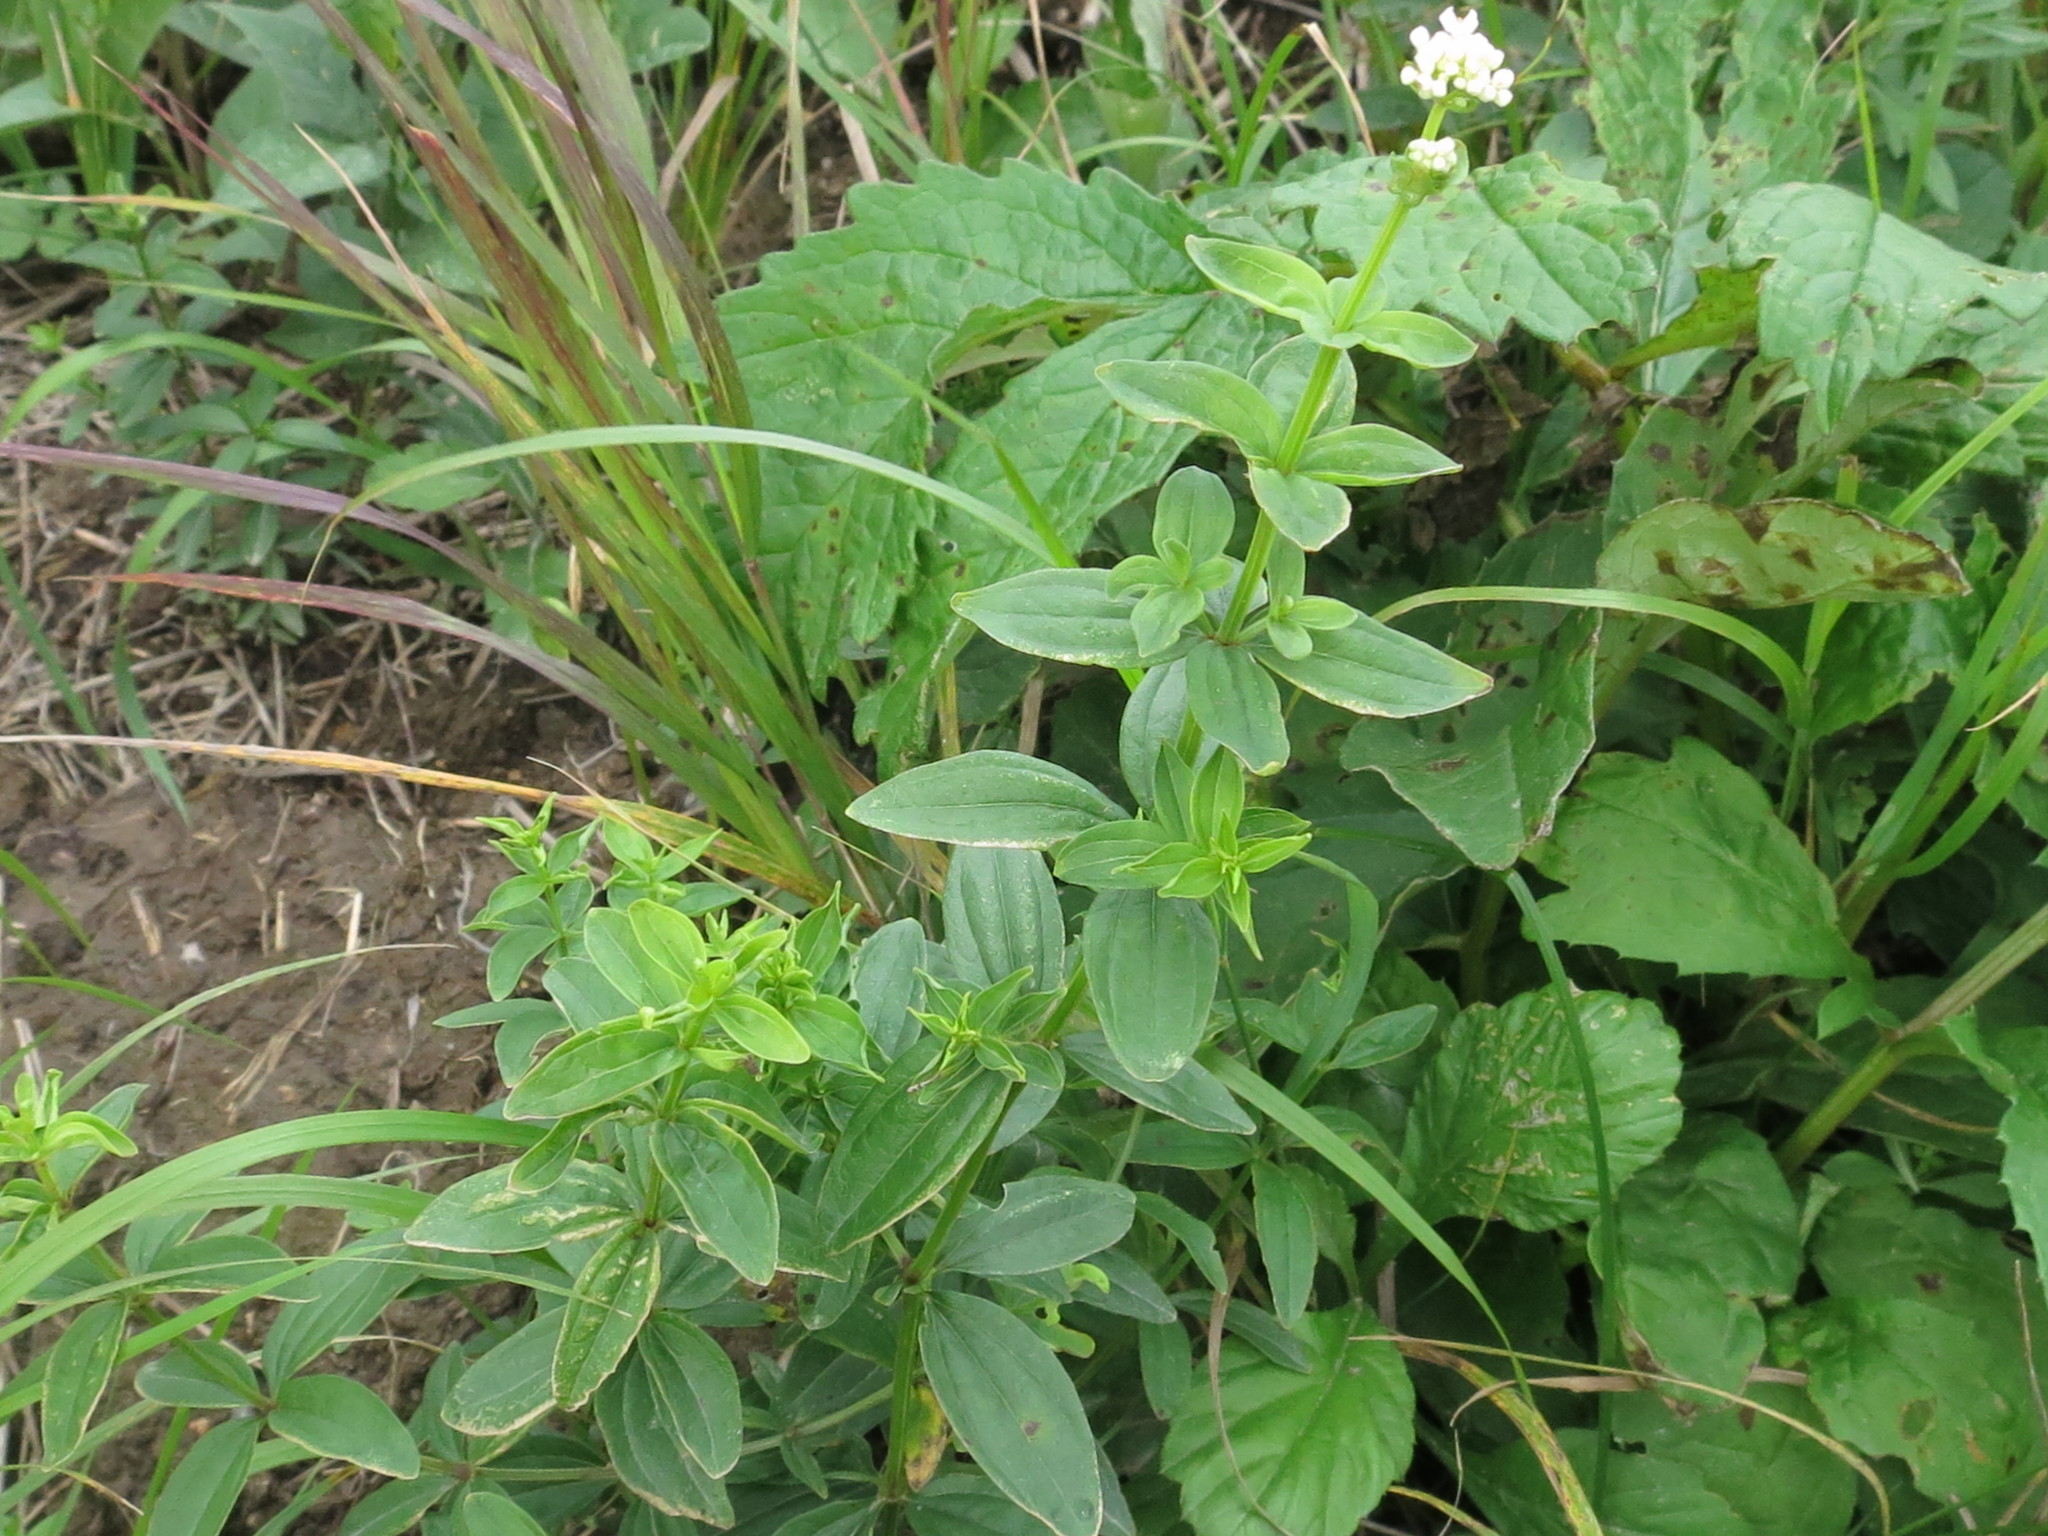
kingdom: Plantae
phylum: Tracheophyta
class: Magnoliopsida
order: Gentianales
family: Rubiaceae
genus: Galium
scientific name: Galium boreale
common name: Northern bedstraw
